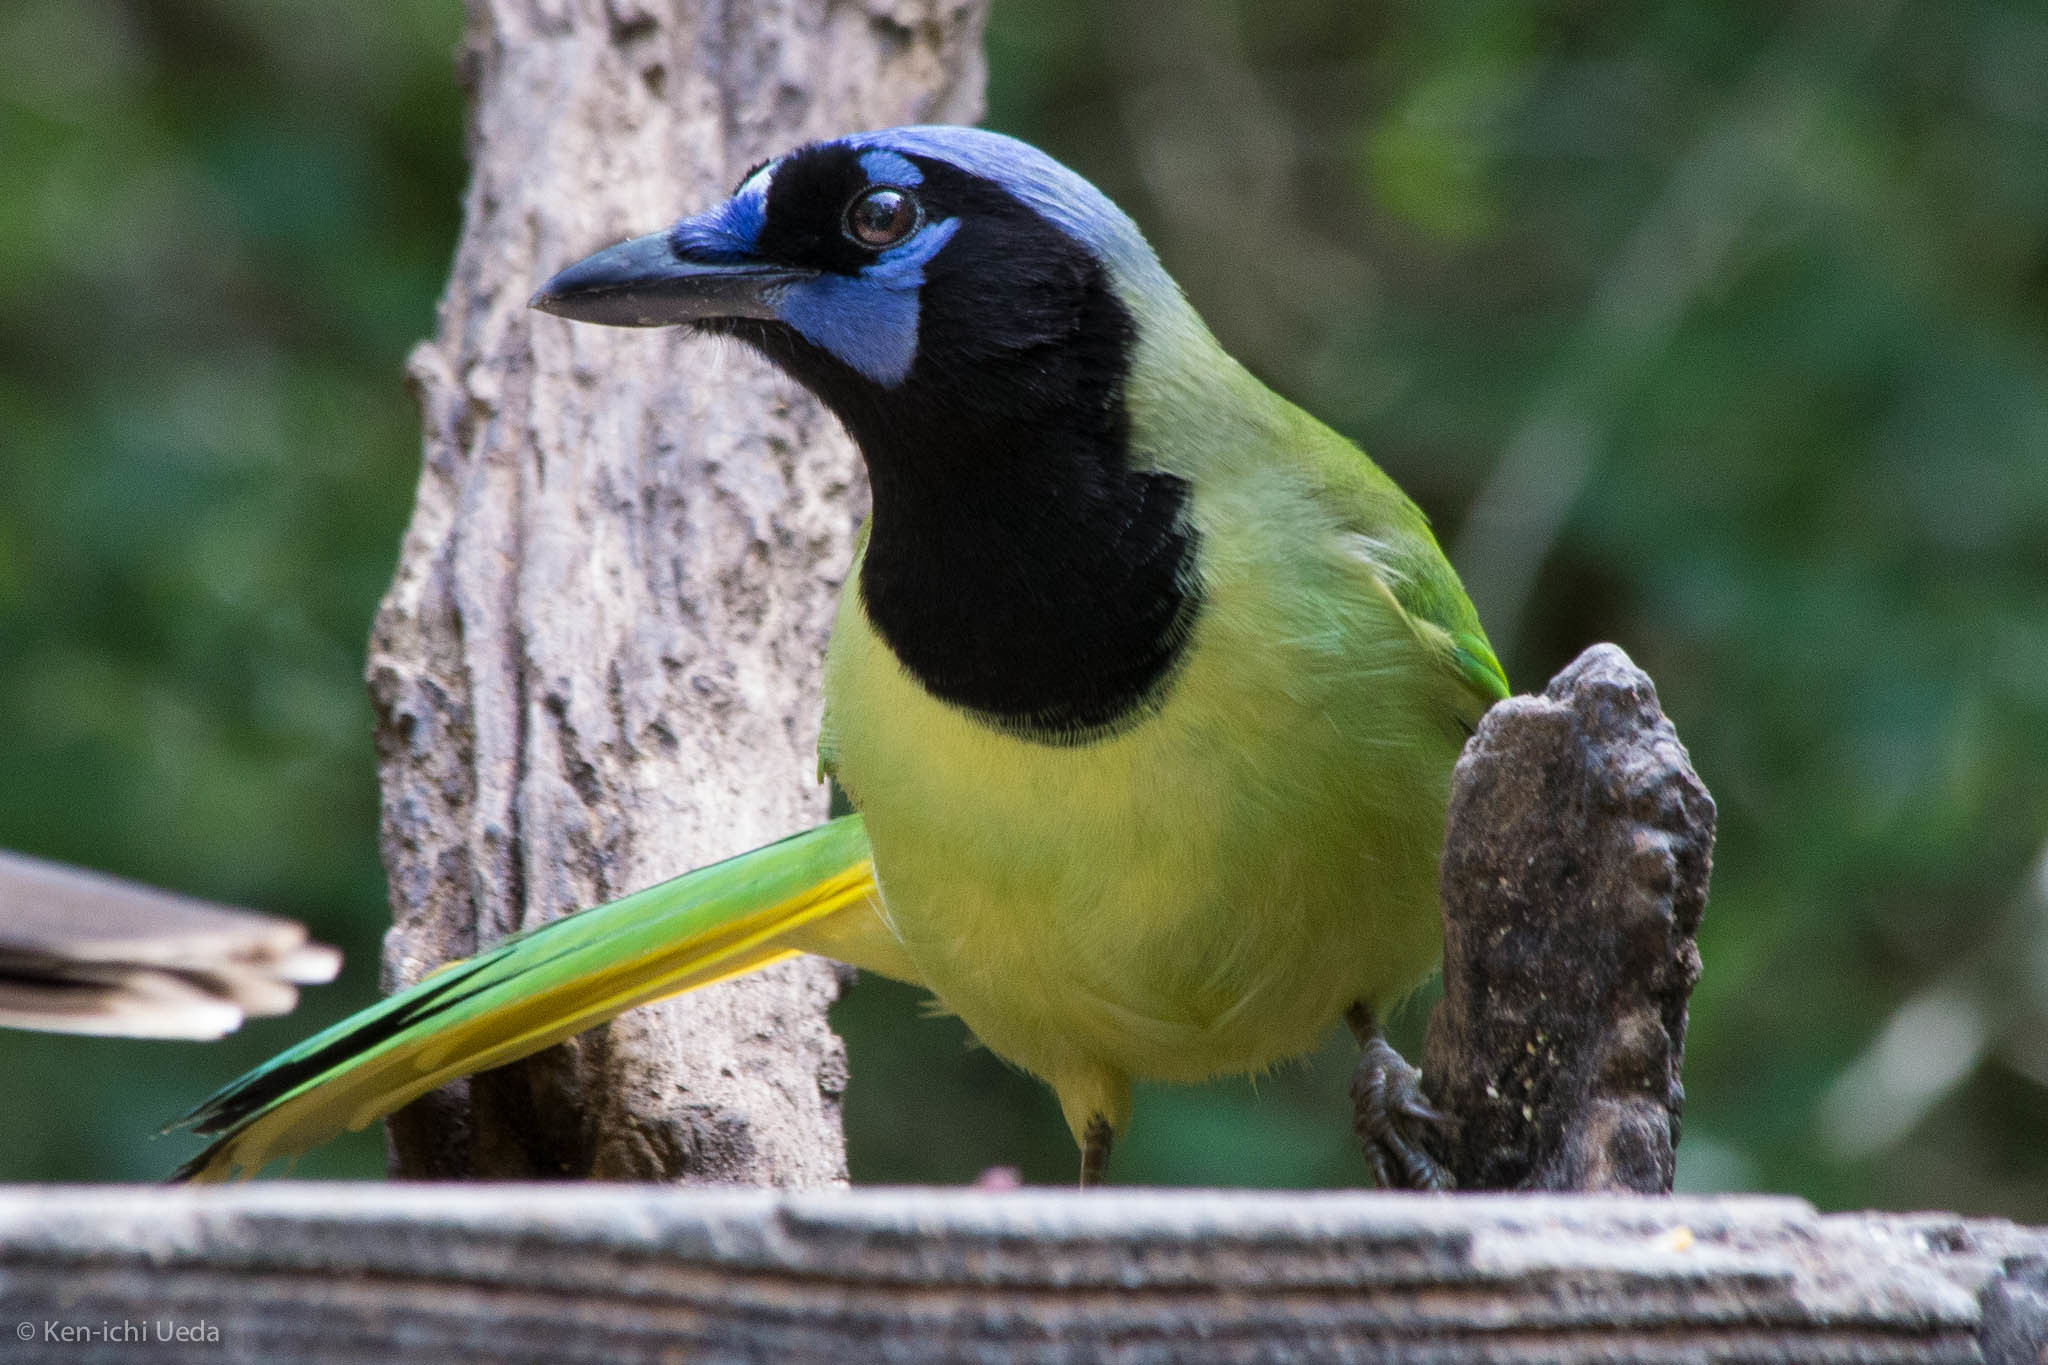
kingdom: Animalia
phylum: Chordata
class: Aves
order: Passeriformes
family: Corvidae
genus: Cyanocorax
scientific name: Cyanocorax yncas
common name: Green jay
